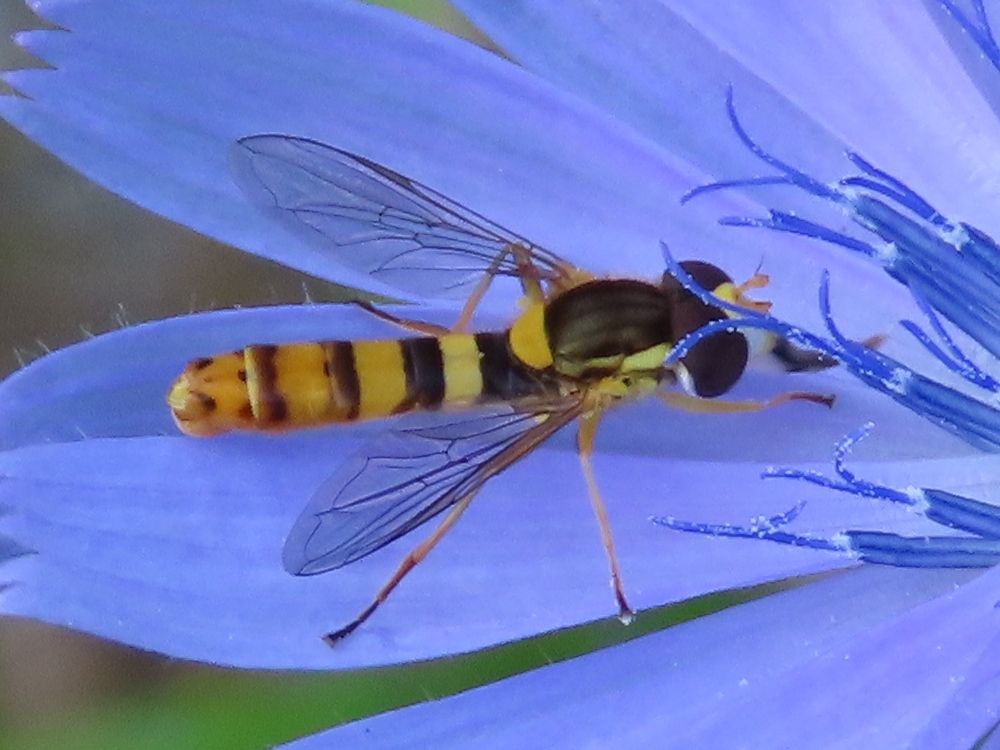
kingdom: Animalia
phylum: Arthropoda
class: Insecta
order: Diptera
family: Syrphidae
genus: Sphaerophoria
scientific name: Sphaerophoria philantha
